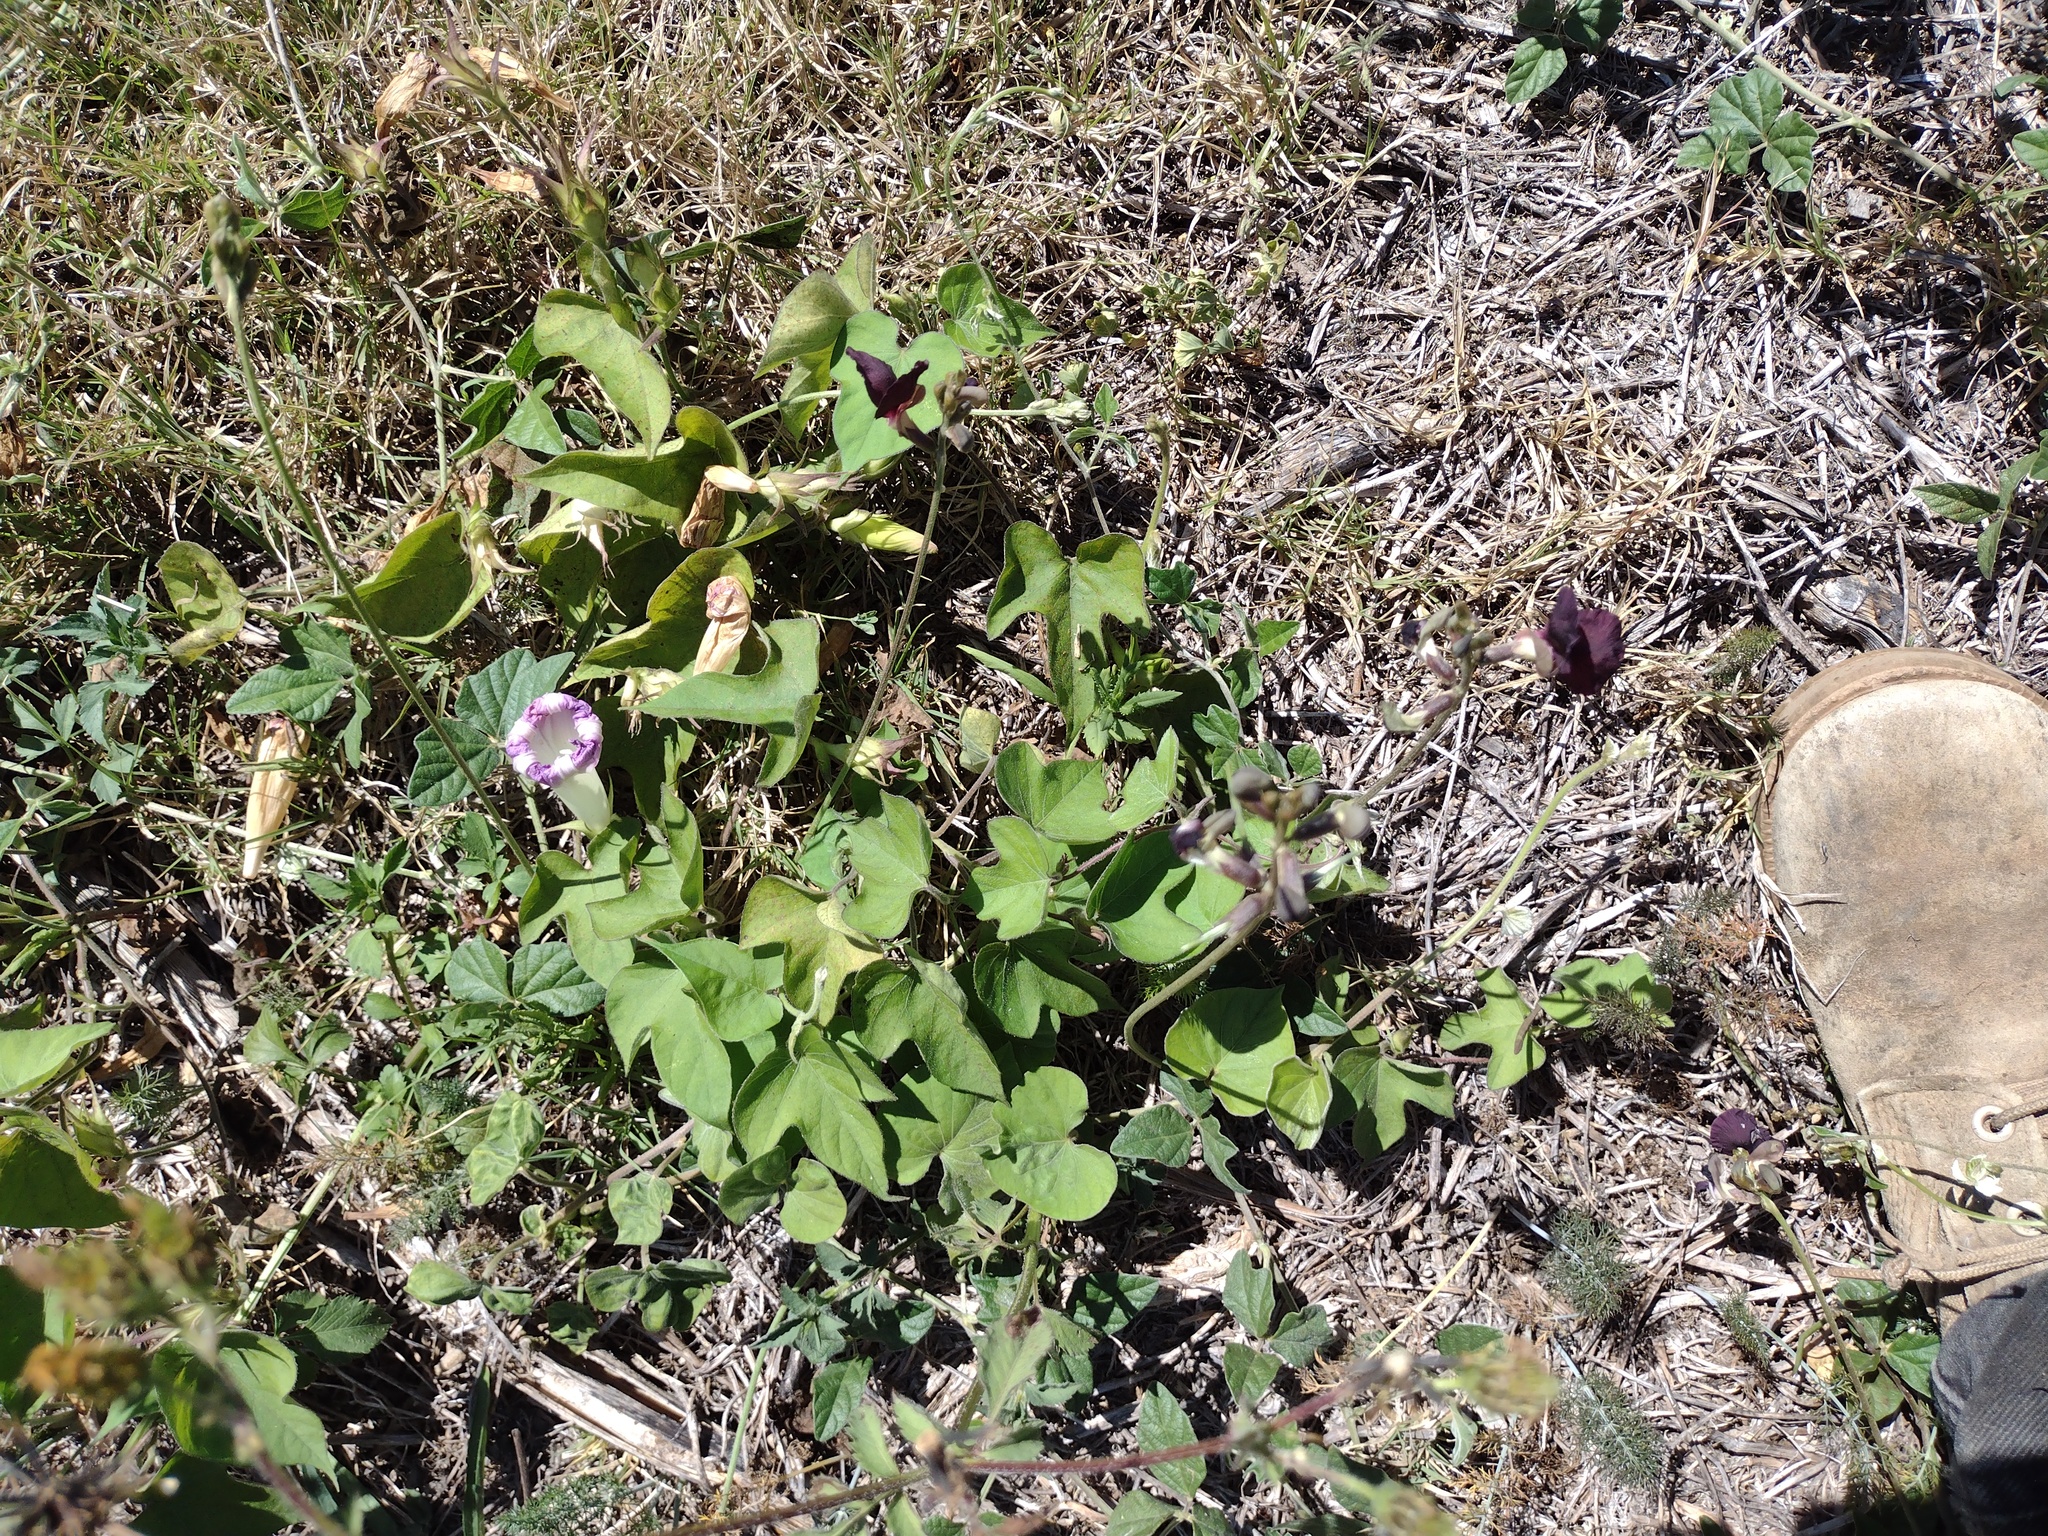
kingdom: Plantae
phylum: Tracheophyta
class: Magnoliopsida
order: Solanales
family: Convolvulaceae
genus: Ipomoea
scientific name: Ipomoea indica
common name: Blue dawnflower
